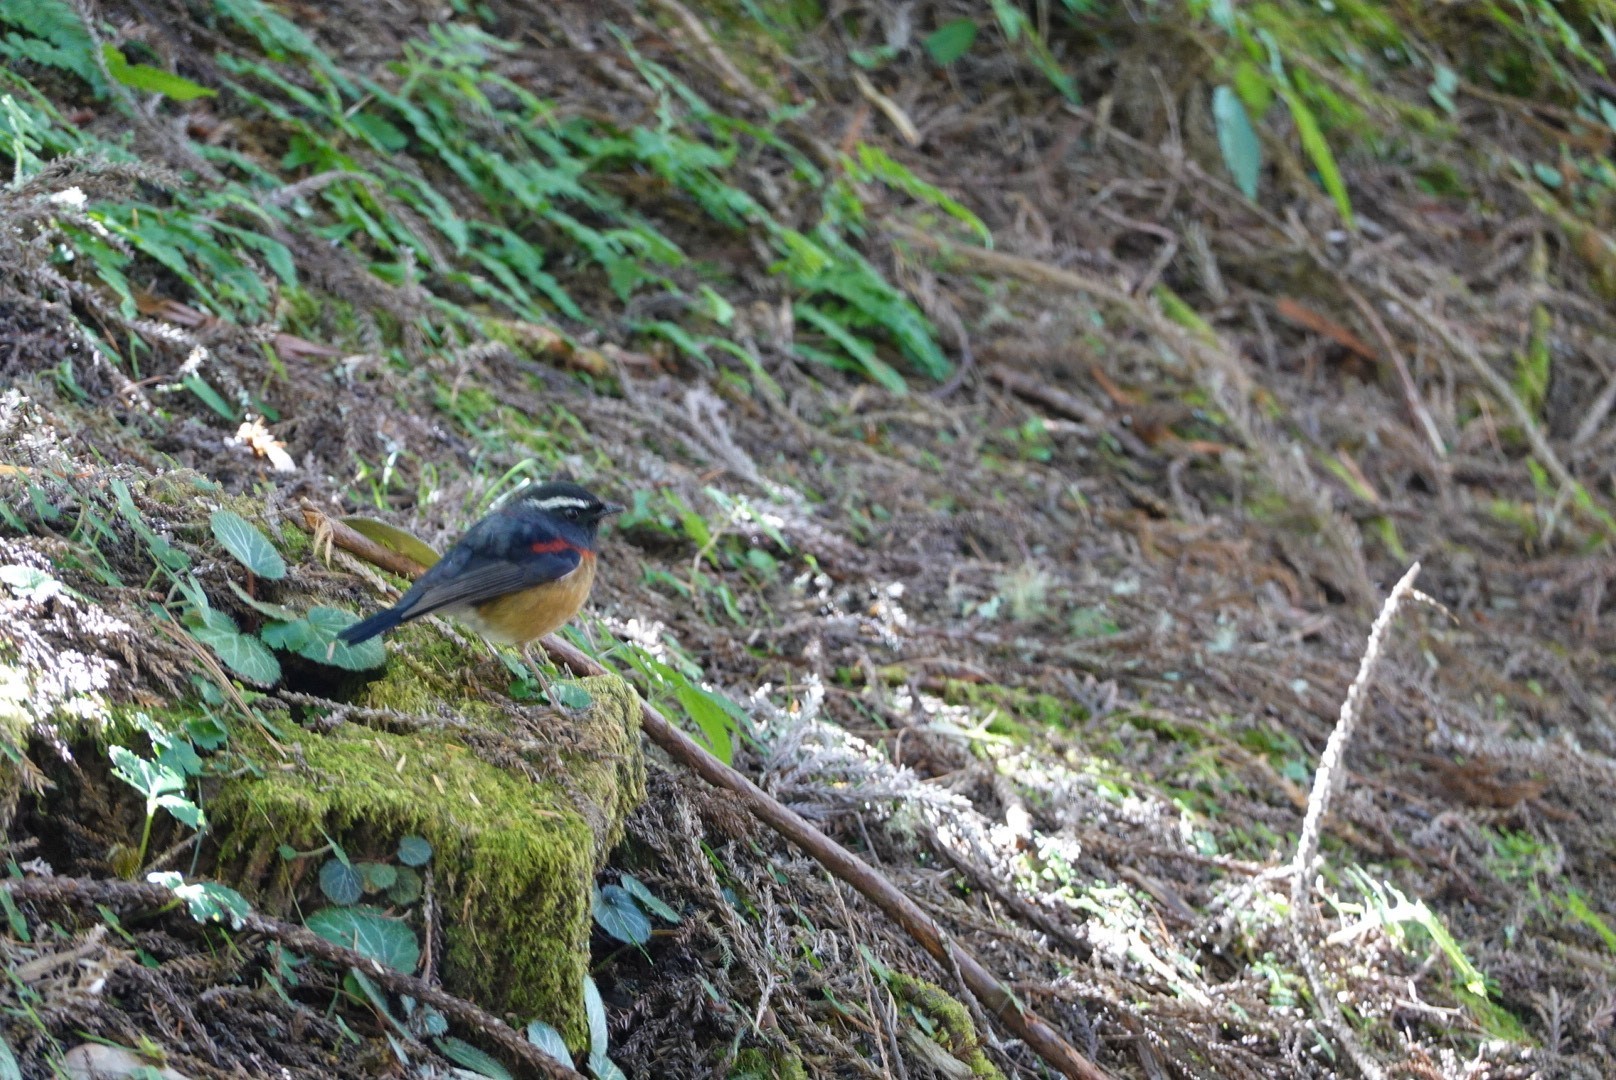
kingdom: Animalia
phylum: Chordata
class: Aves
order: Passeriformes
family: Muscicapidae
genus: Tarsiger
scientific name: Tarsiger johnstoniae
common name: Collared bush robin
